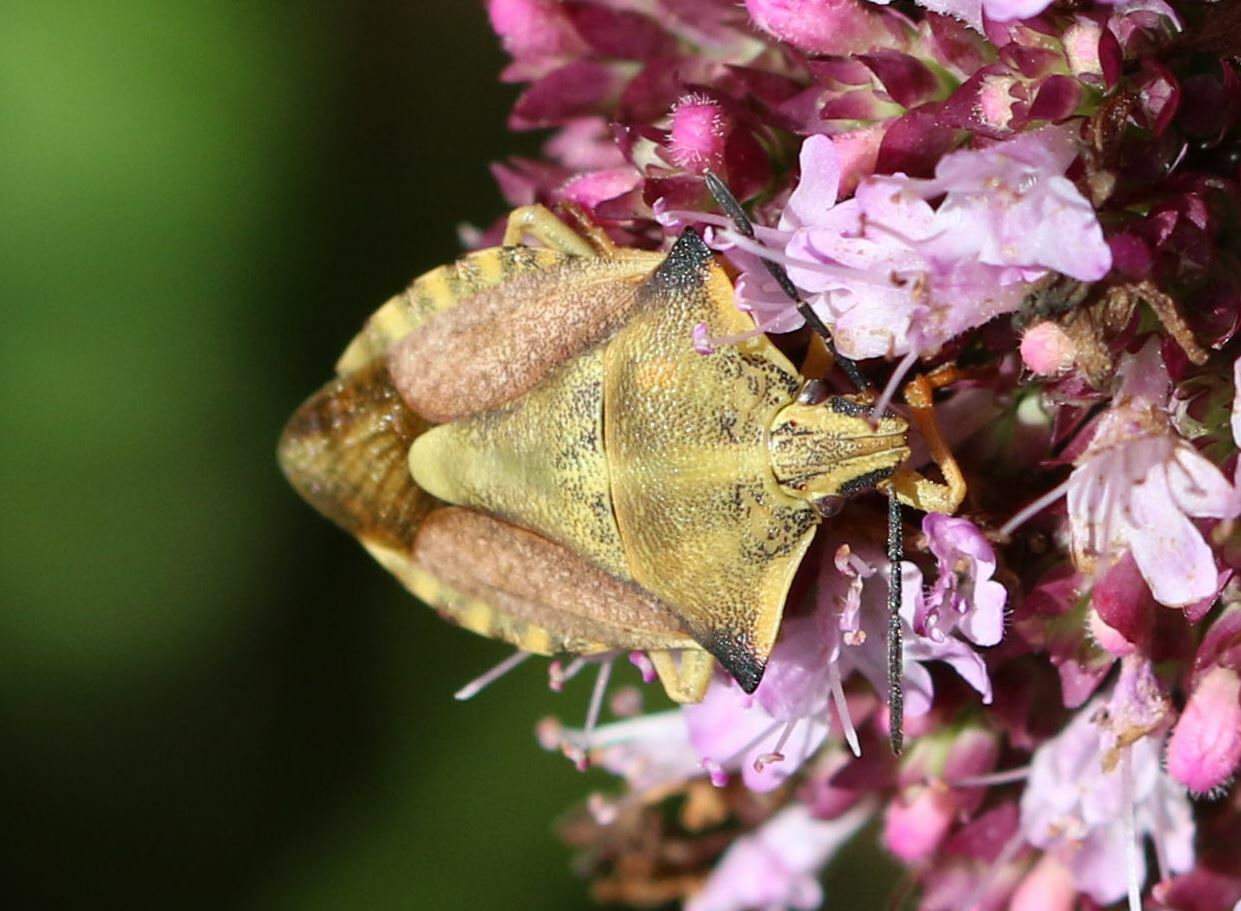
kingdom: Animalia
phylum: Arthropoda
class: Insecta
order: Hemiptera
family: Pentatomidae
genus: Carpocoris
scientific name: Carpocoris fuscispinus
